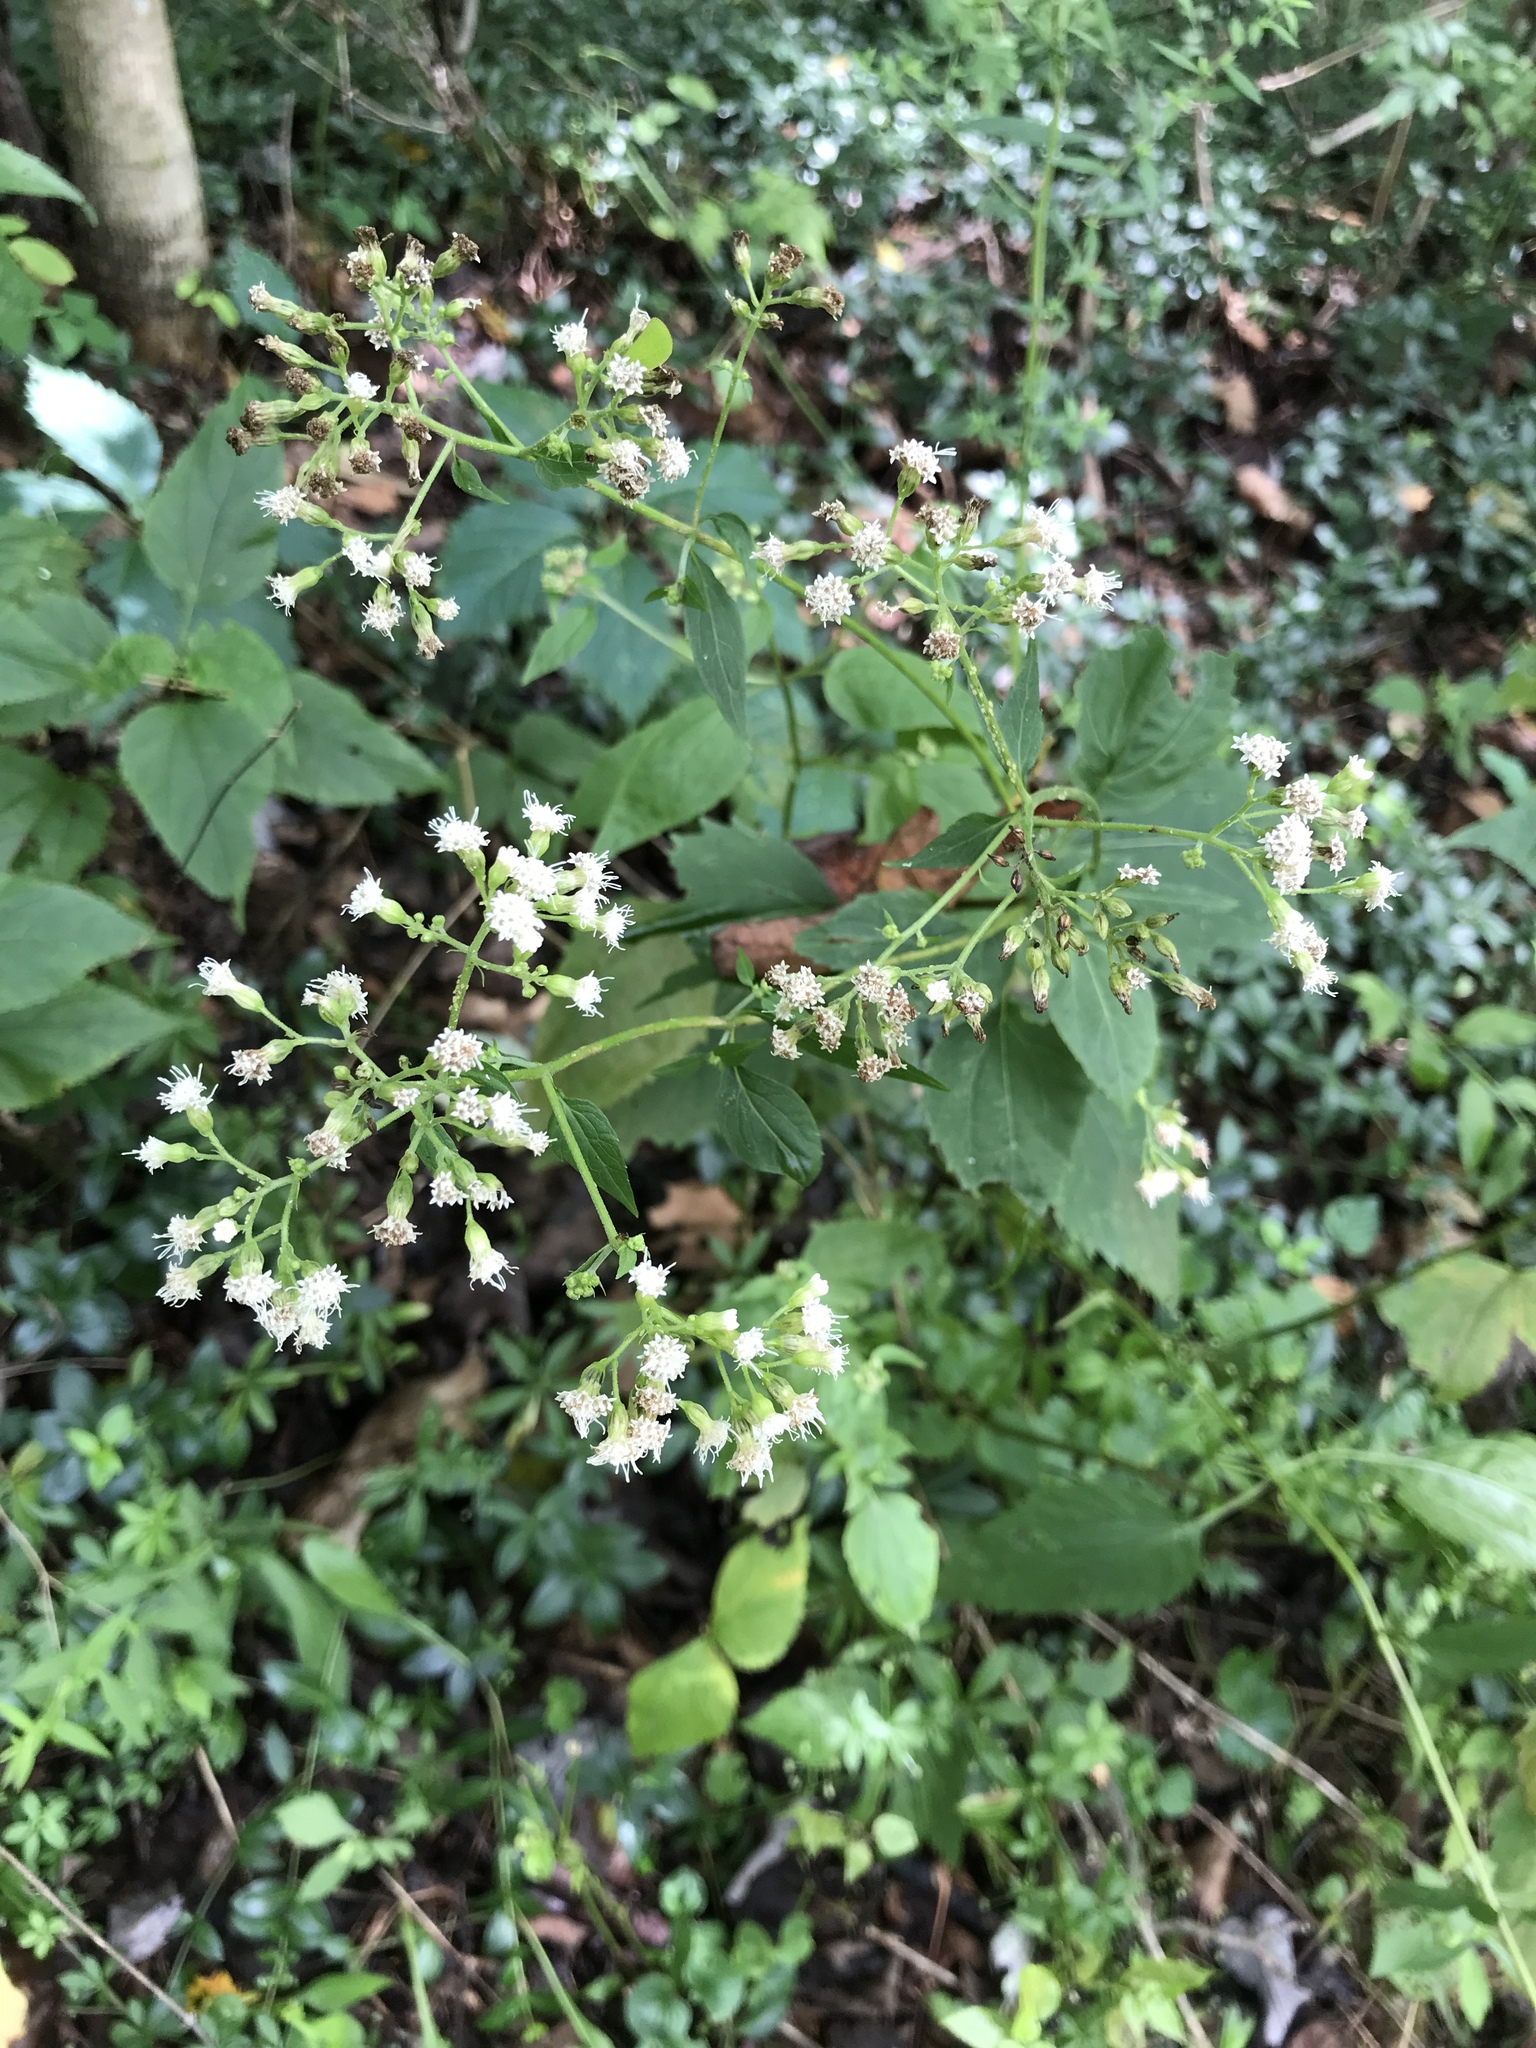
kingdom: Plantae
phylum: Tracheophyta
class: Magnoliopsida
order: Asterales
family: Asteraceae
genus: Ageratina
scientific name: Ageratina altissima
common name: White snakeroot
